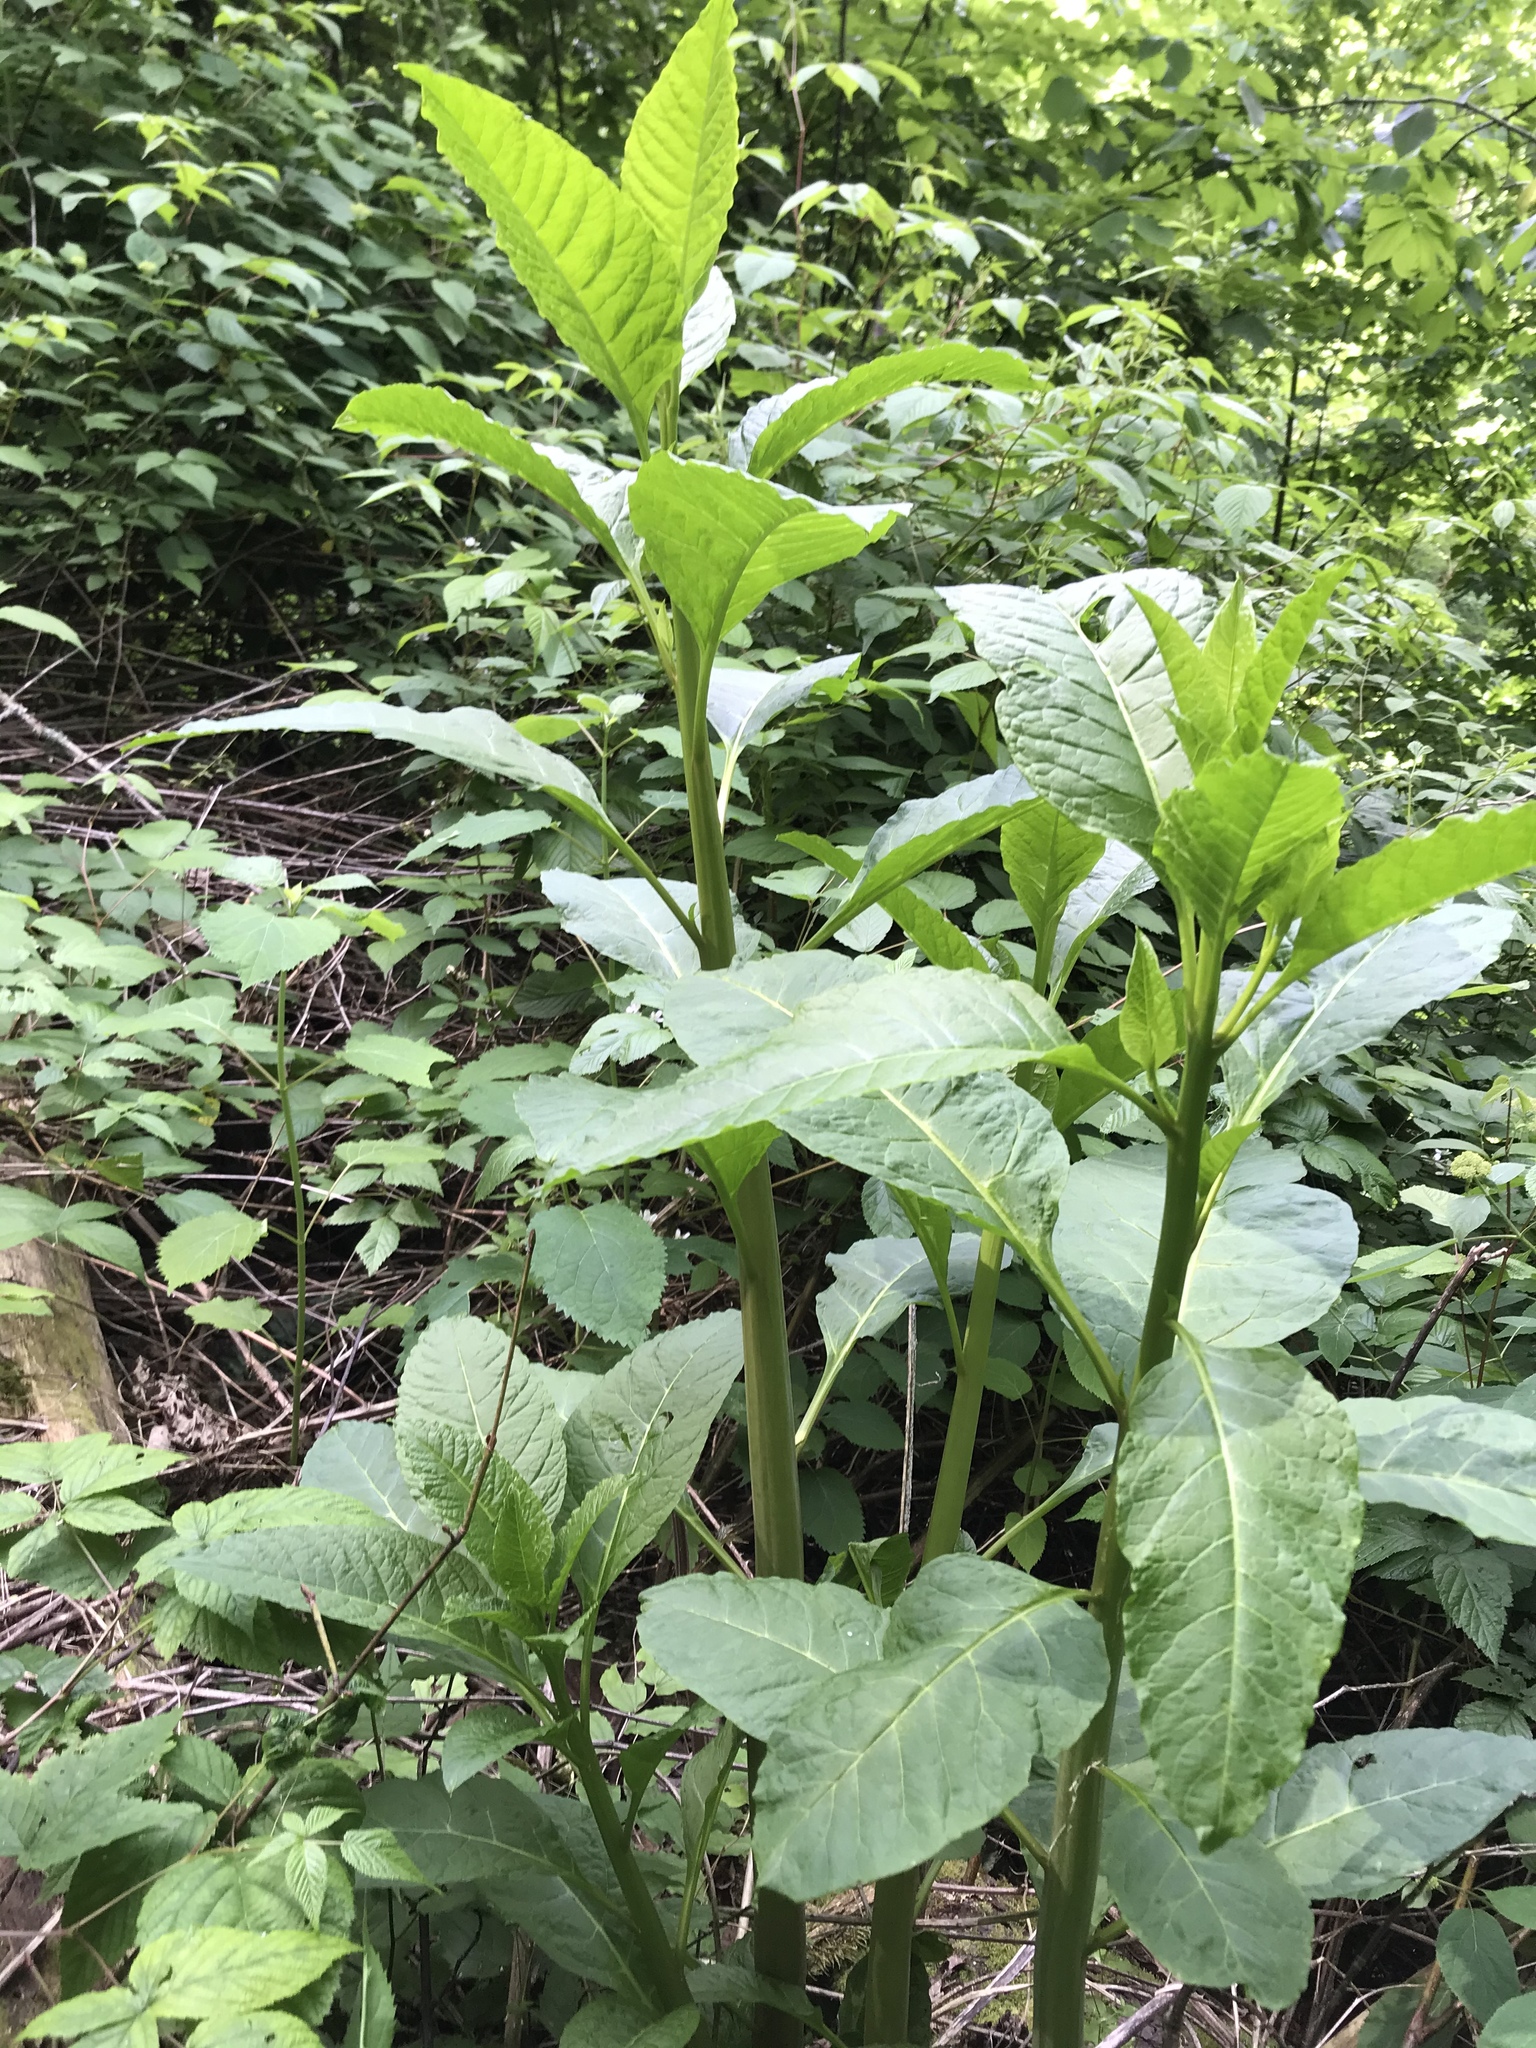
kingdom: Plantae
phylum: Tracheophyta
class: Magnoliopsida
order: Caryophyllales
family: Phytolaccaceae
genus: Phytolacca
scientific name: Phytolacca americana
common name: American pokeweed
